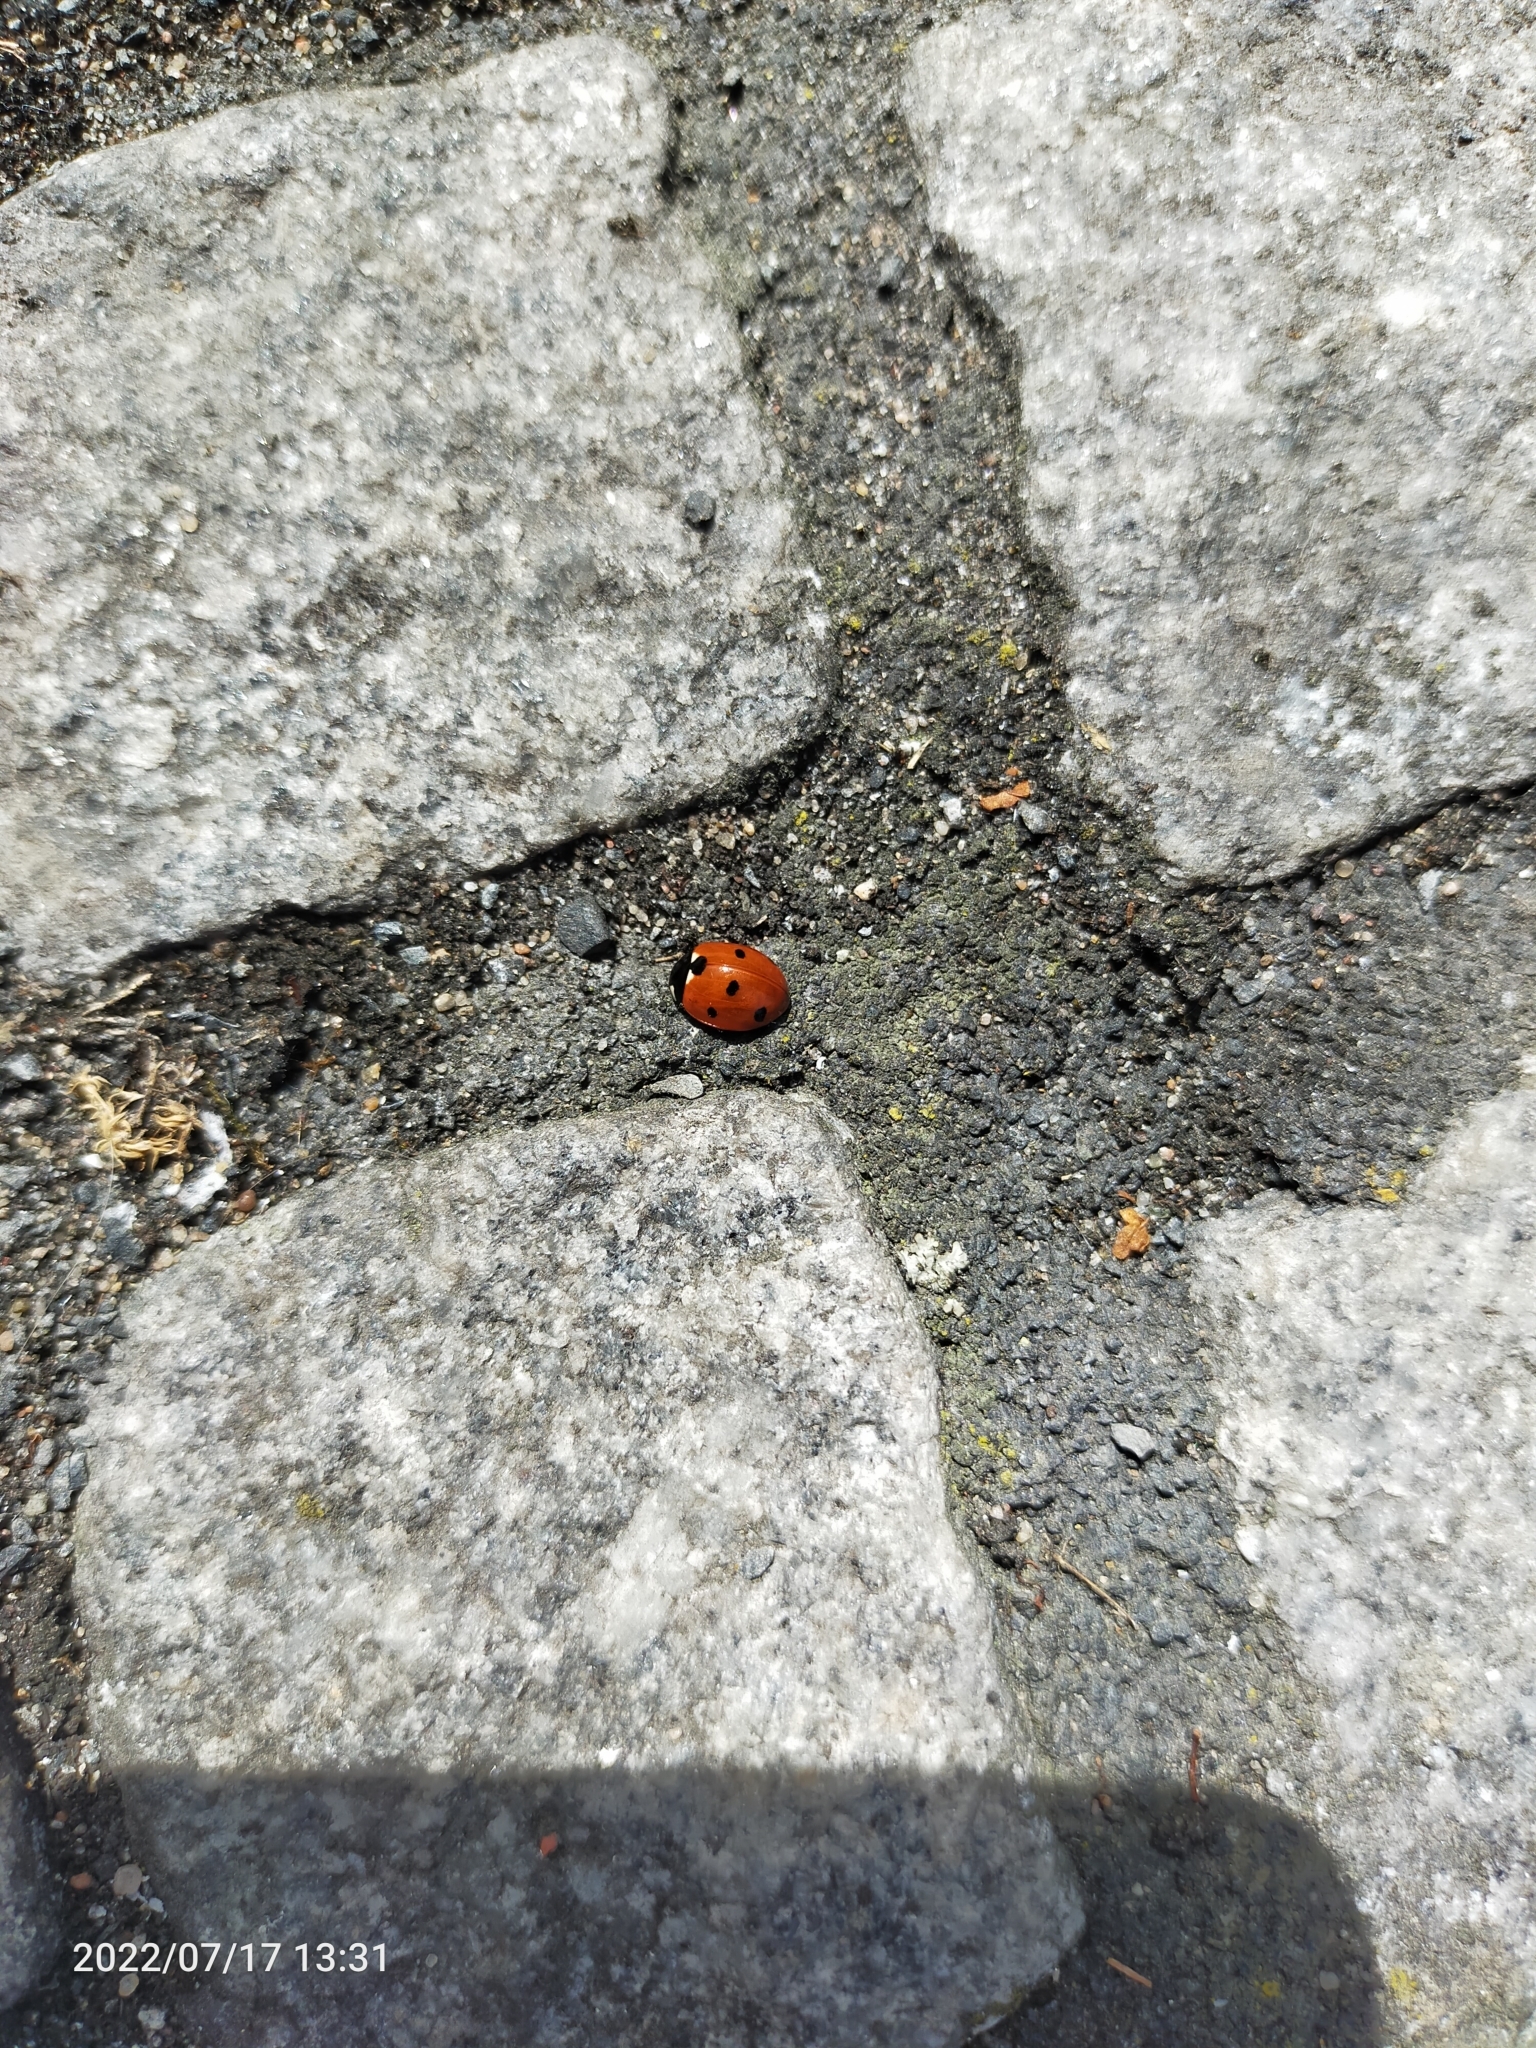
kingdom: Animalia
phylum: Arthropoda
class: Insecta
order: Coleoptera
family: Coccinellidae
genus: Coccinella
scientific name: Coccinella septempunctata
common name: Sevenspotted lady beetle
